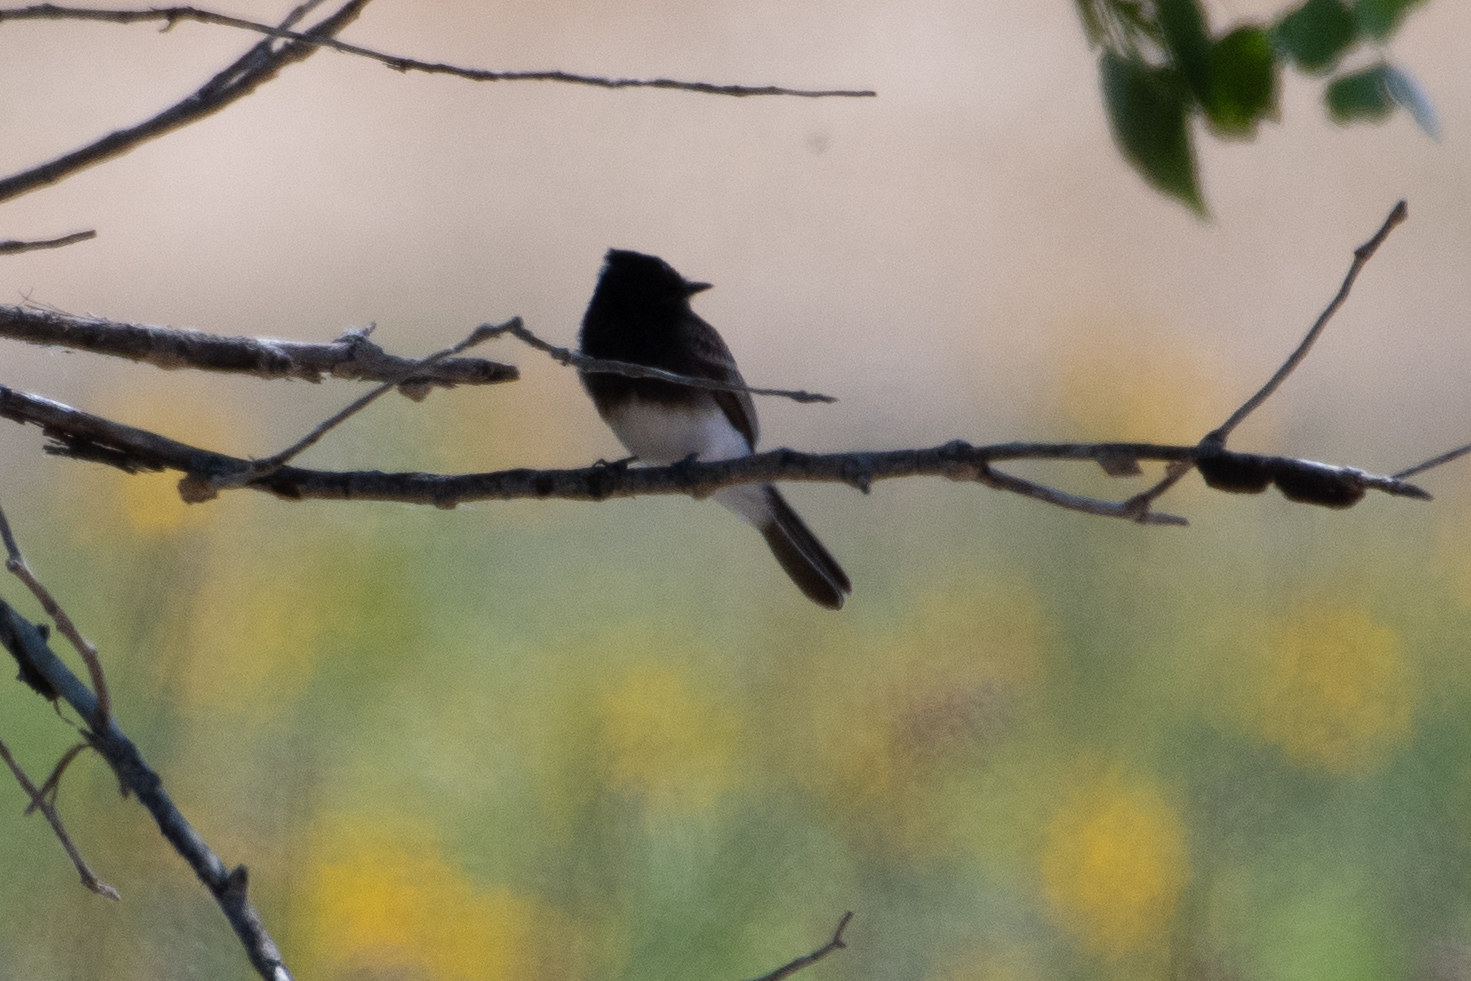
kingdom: Animalia
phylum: Chordata
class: Aves
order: Passeriformes
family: Tyrannidae
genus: Sayornis
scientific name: Sayornis nigricans
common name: Black phoebe
